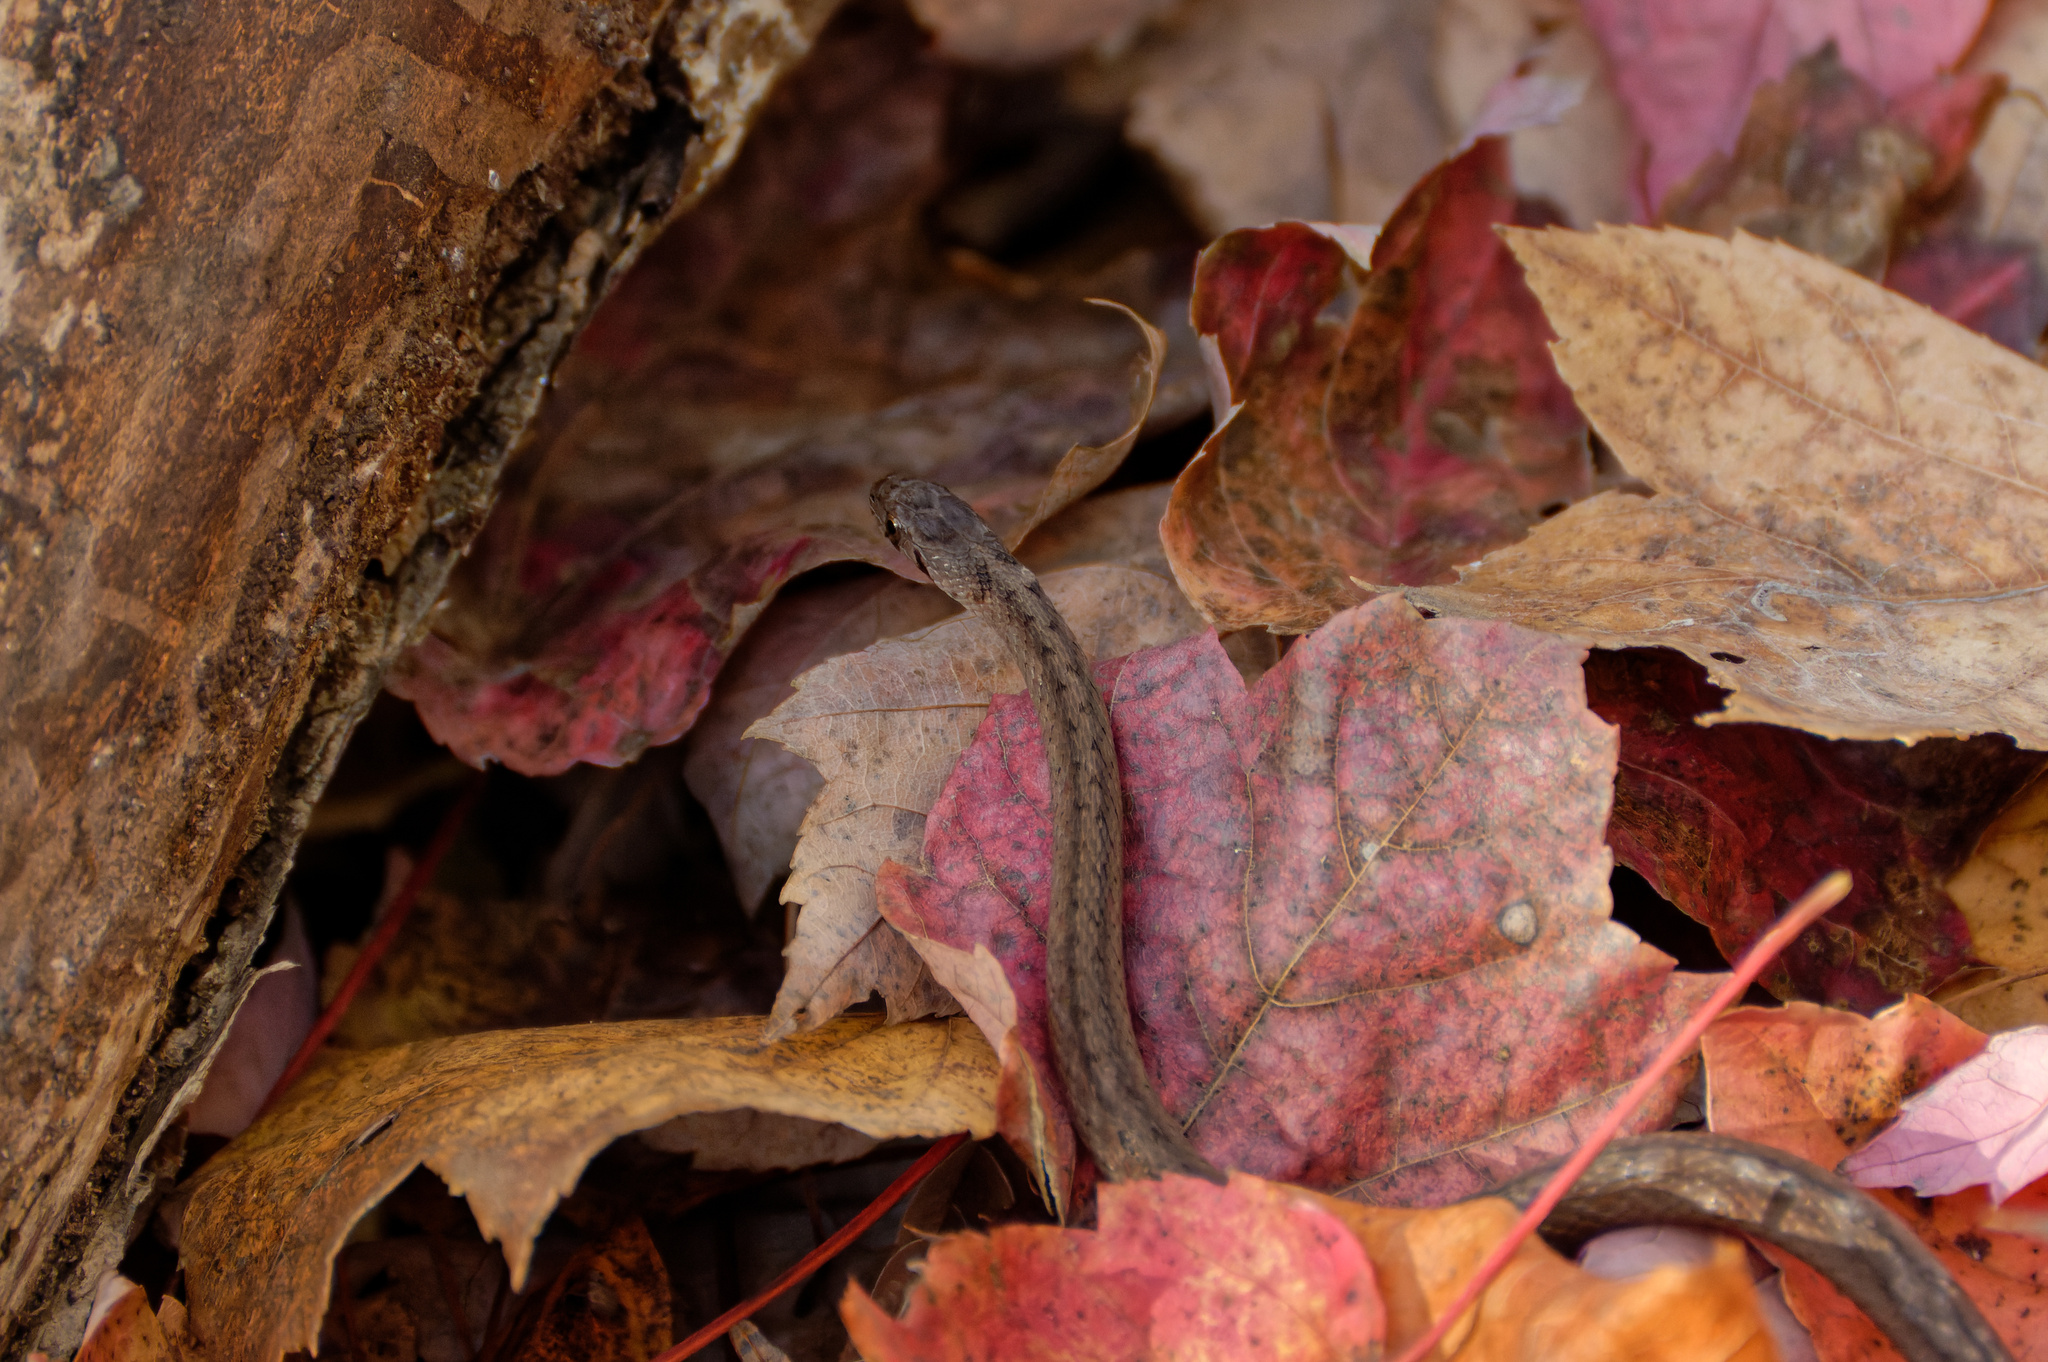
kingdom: Animalia
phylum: Chordata
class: Squamata
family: Colubridae
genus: Storeria
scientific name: Storeria dekayi
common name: (dekay’s) brown snake
